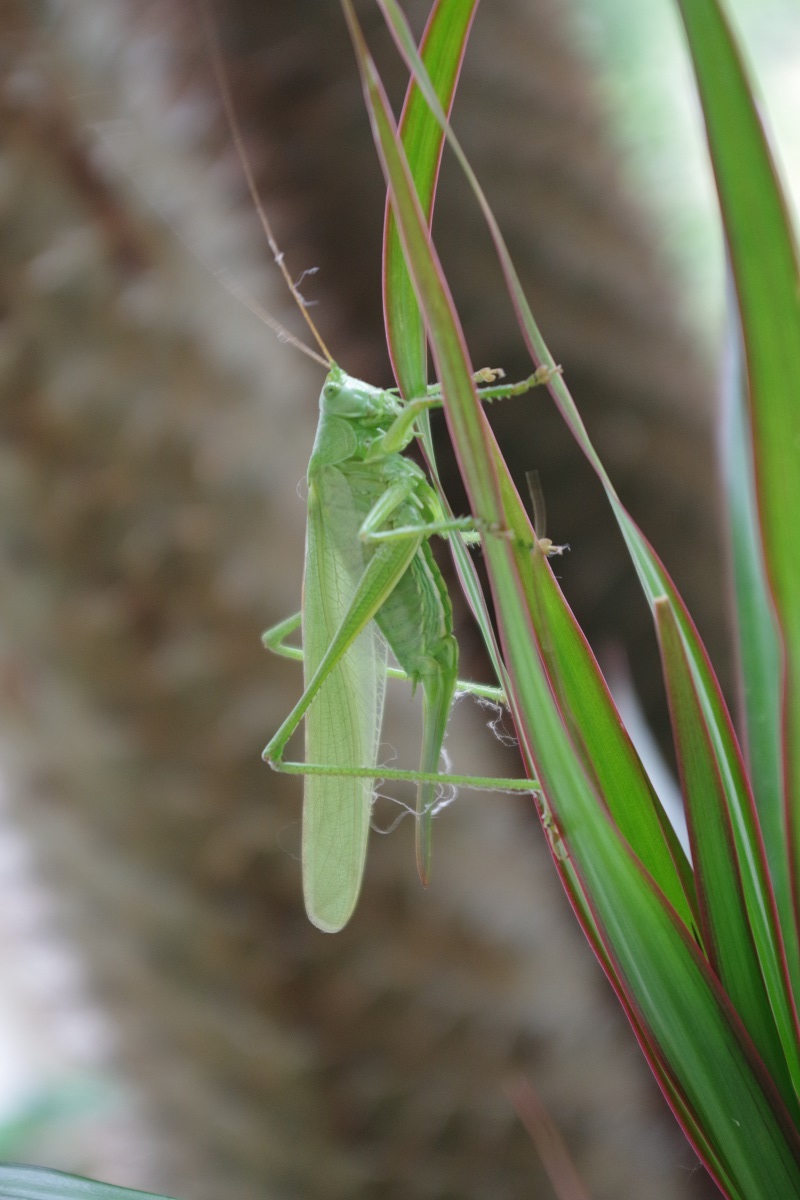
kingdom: Animalia
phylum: Arthropoda
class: Insecta
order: Orthoptera
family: Tettigoniidae
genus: Tettigonia
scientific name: Tettigonia viridissima
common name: Great green bush-cricket
